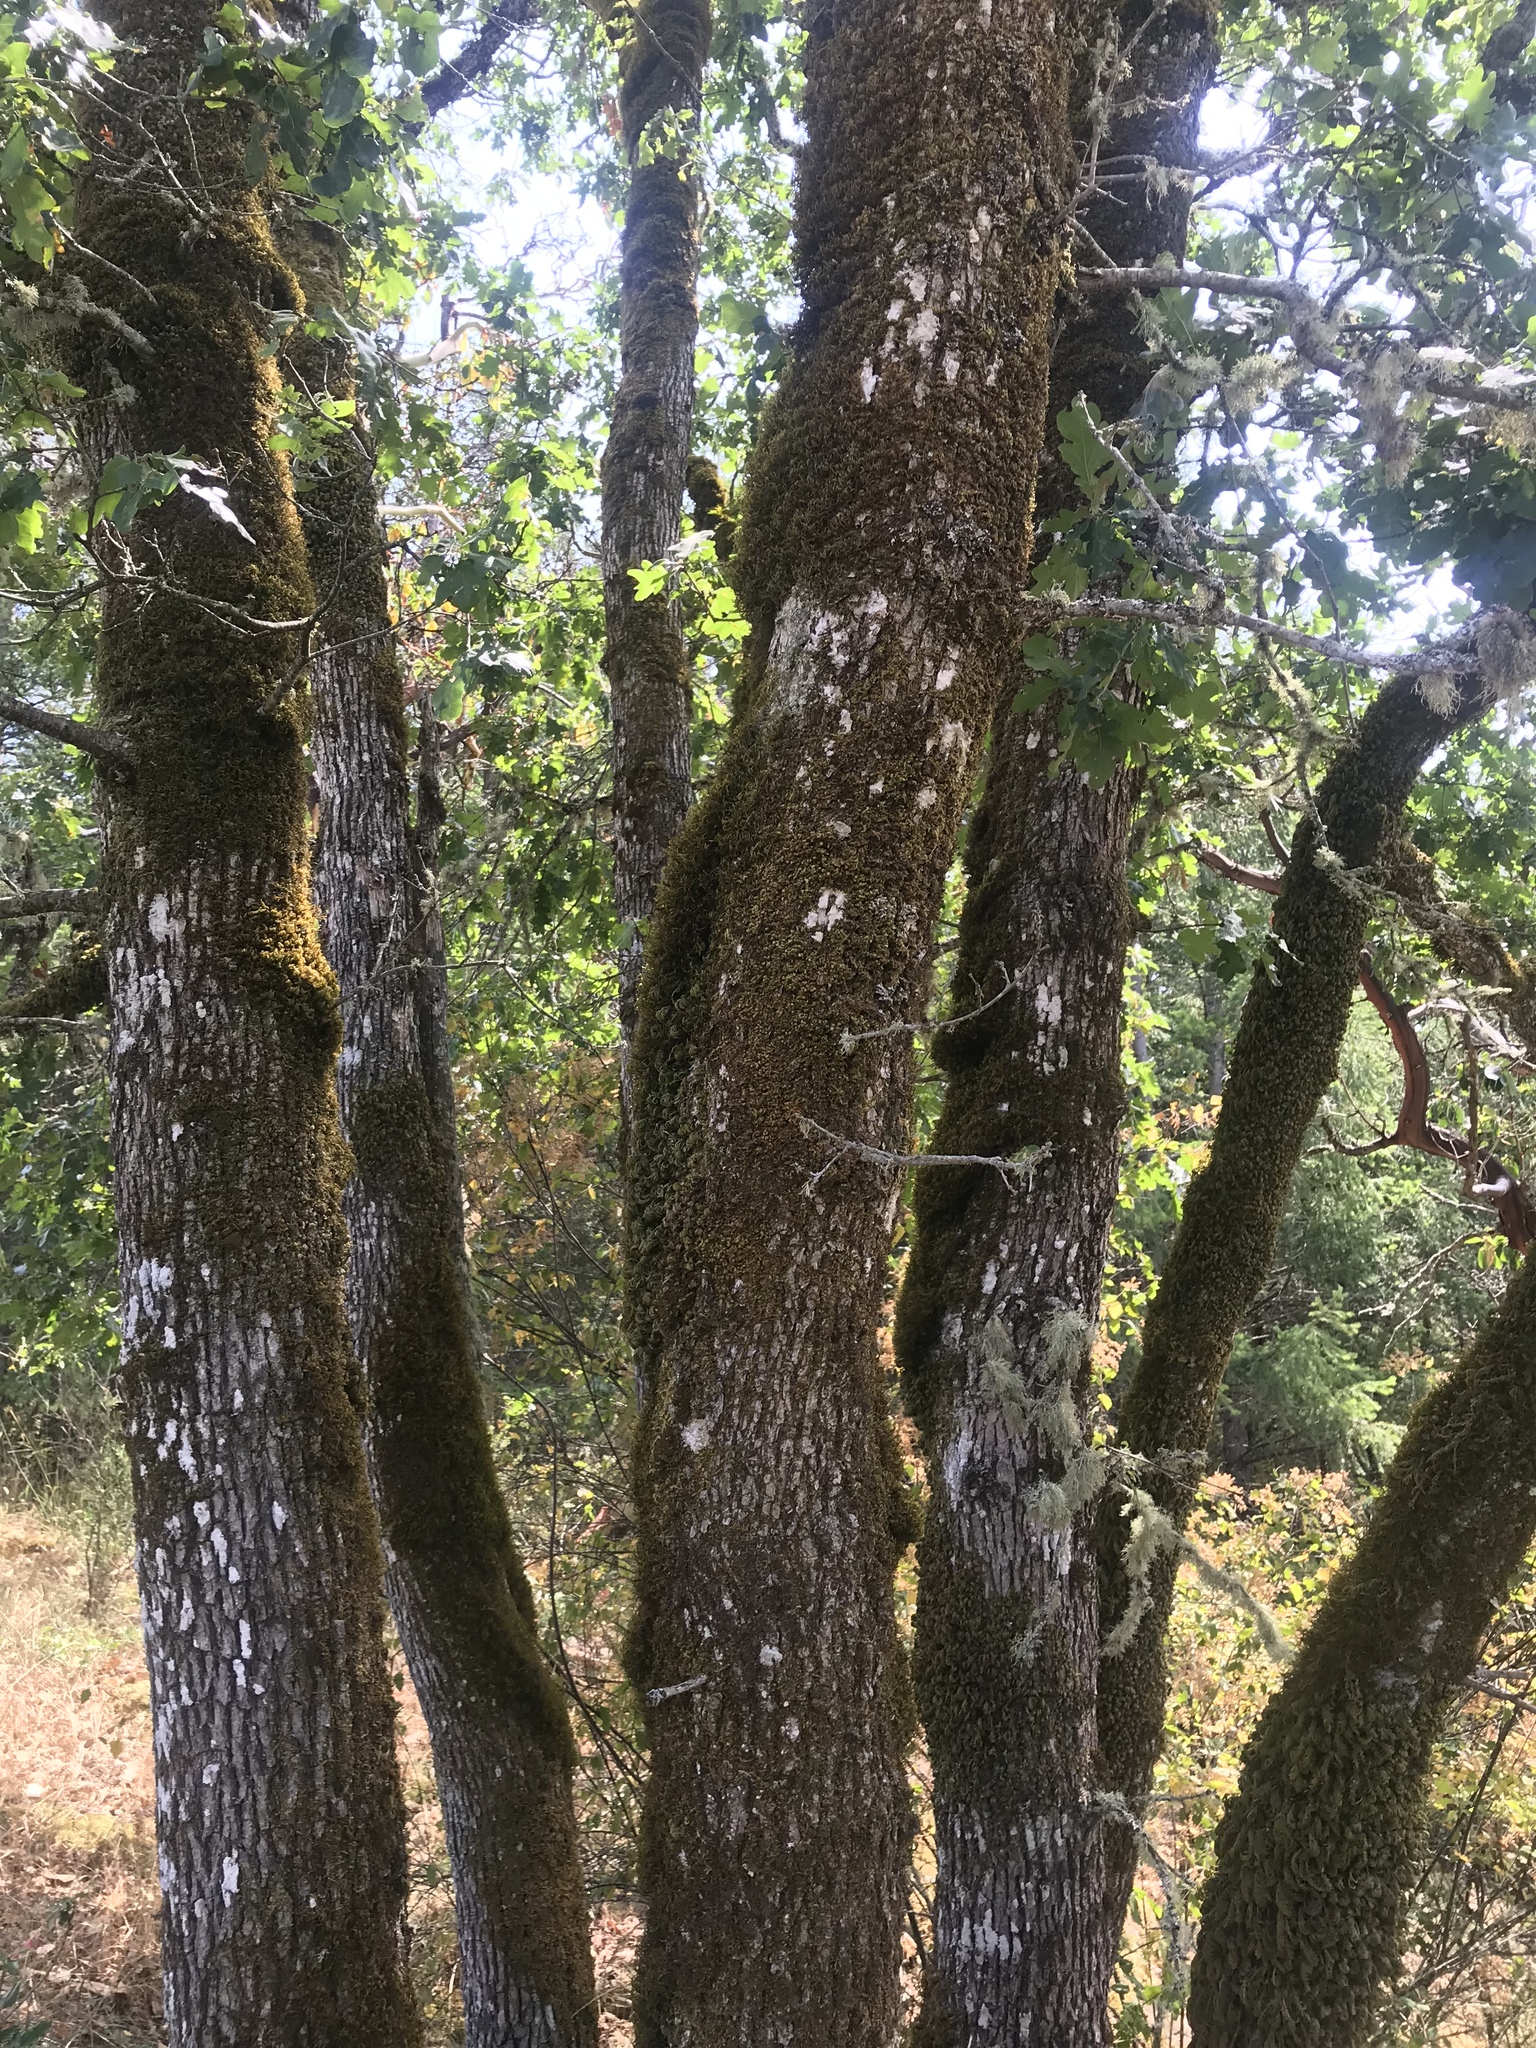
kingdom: Plantae
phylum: Tracheophyta
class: Magnoliopsida
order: Fagales
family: Fagaceae
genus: Quercus
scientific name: Quercus garryana
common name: Garry oak
